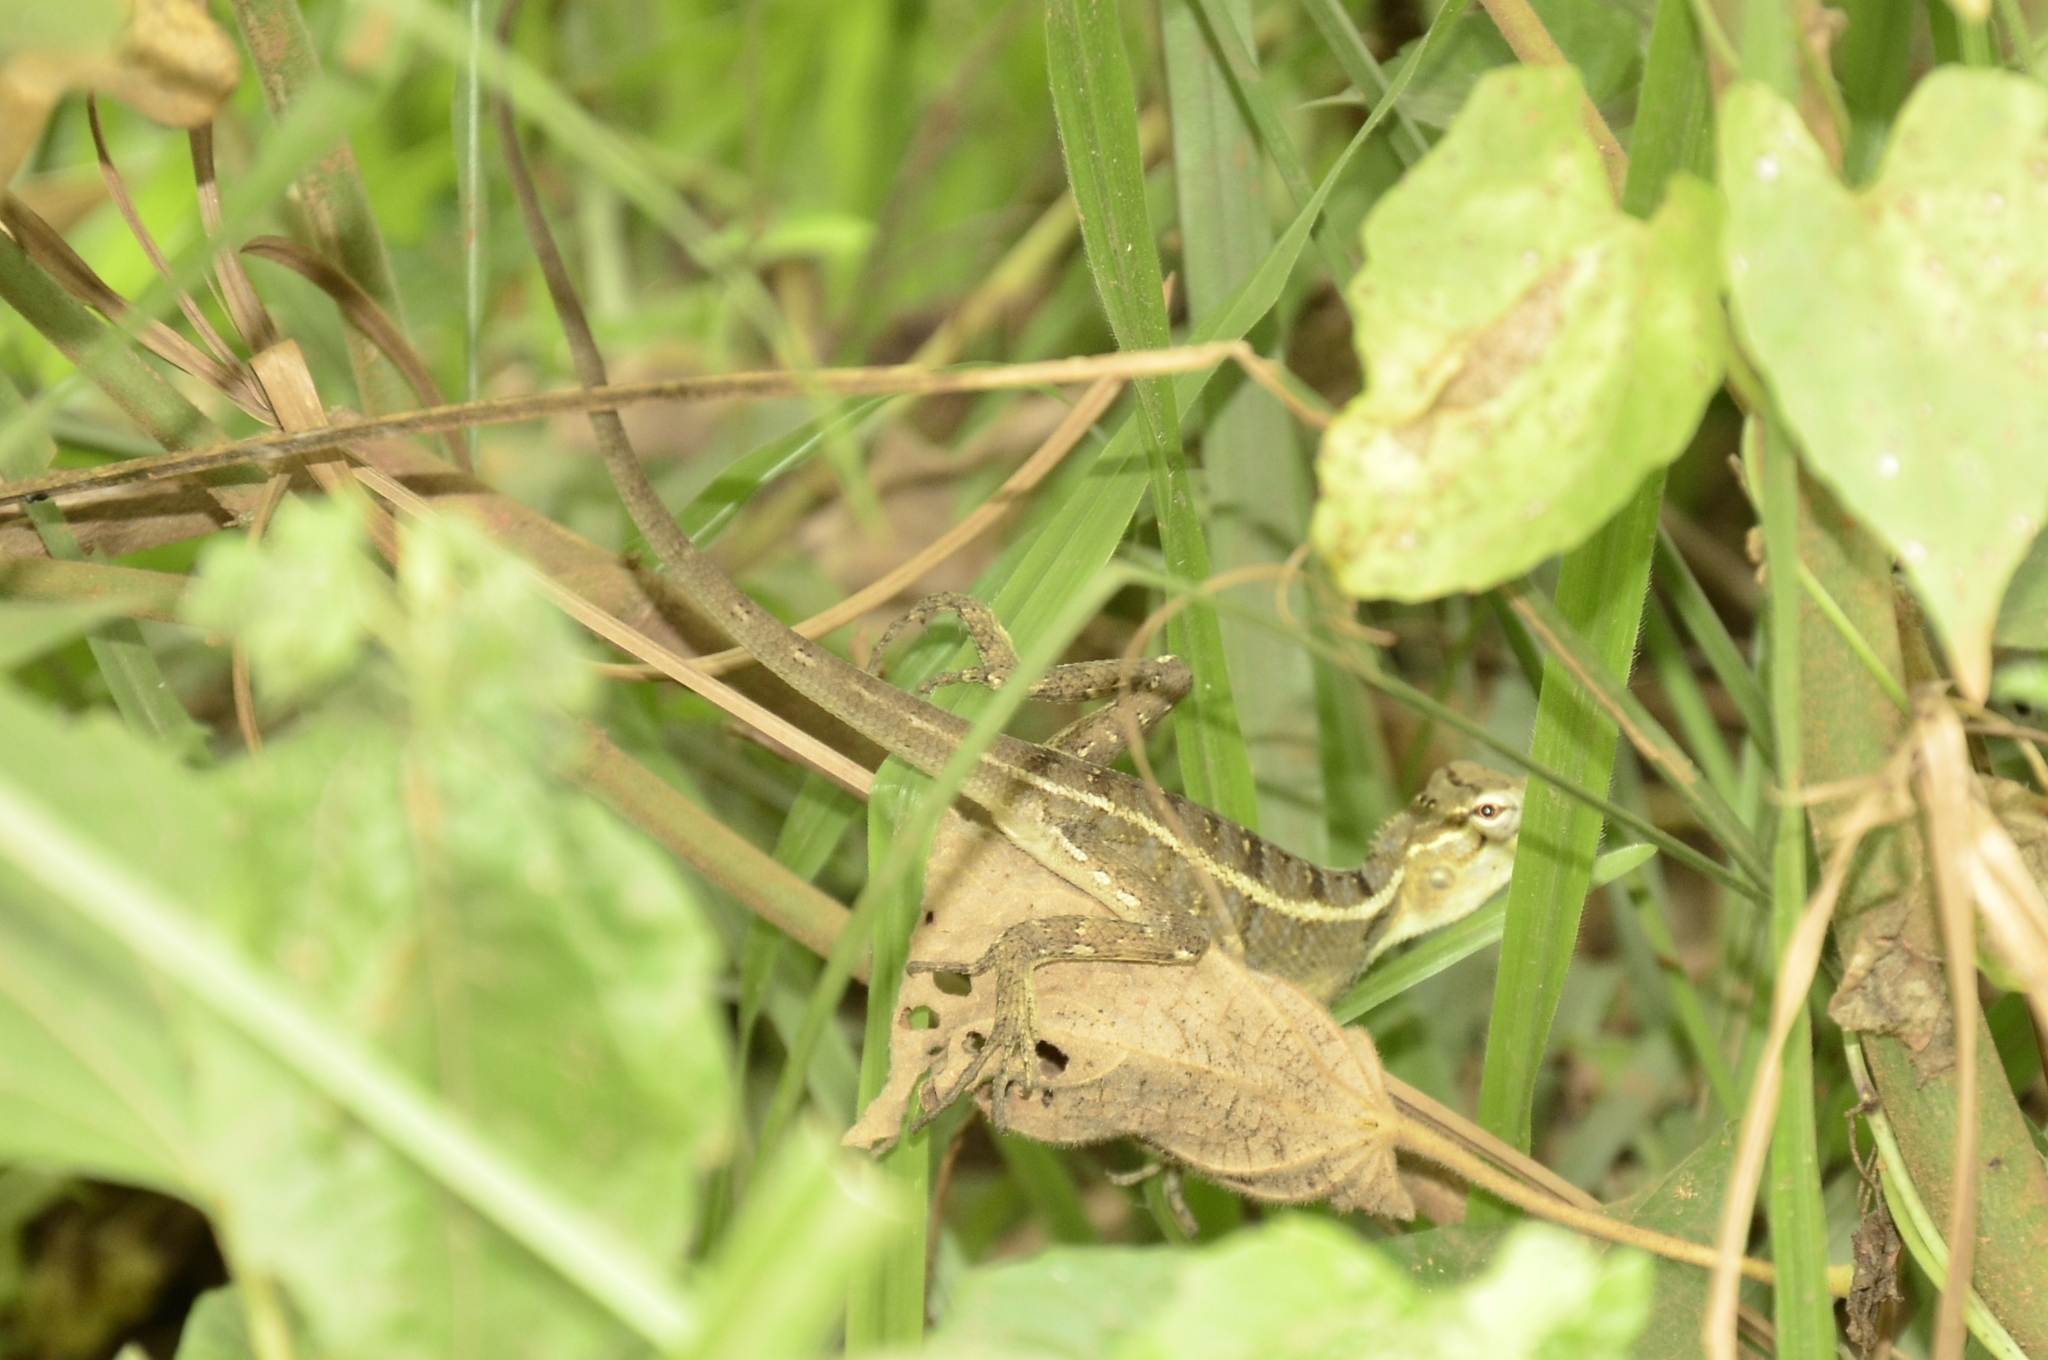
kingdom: Animalia
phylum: Chordata
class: Squamata
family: Agamidae
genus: Calotes
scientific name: Calotes versicolor
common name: Oriental garden lizard
